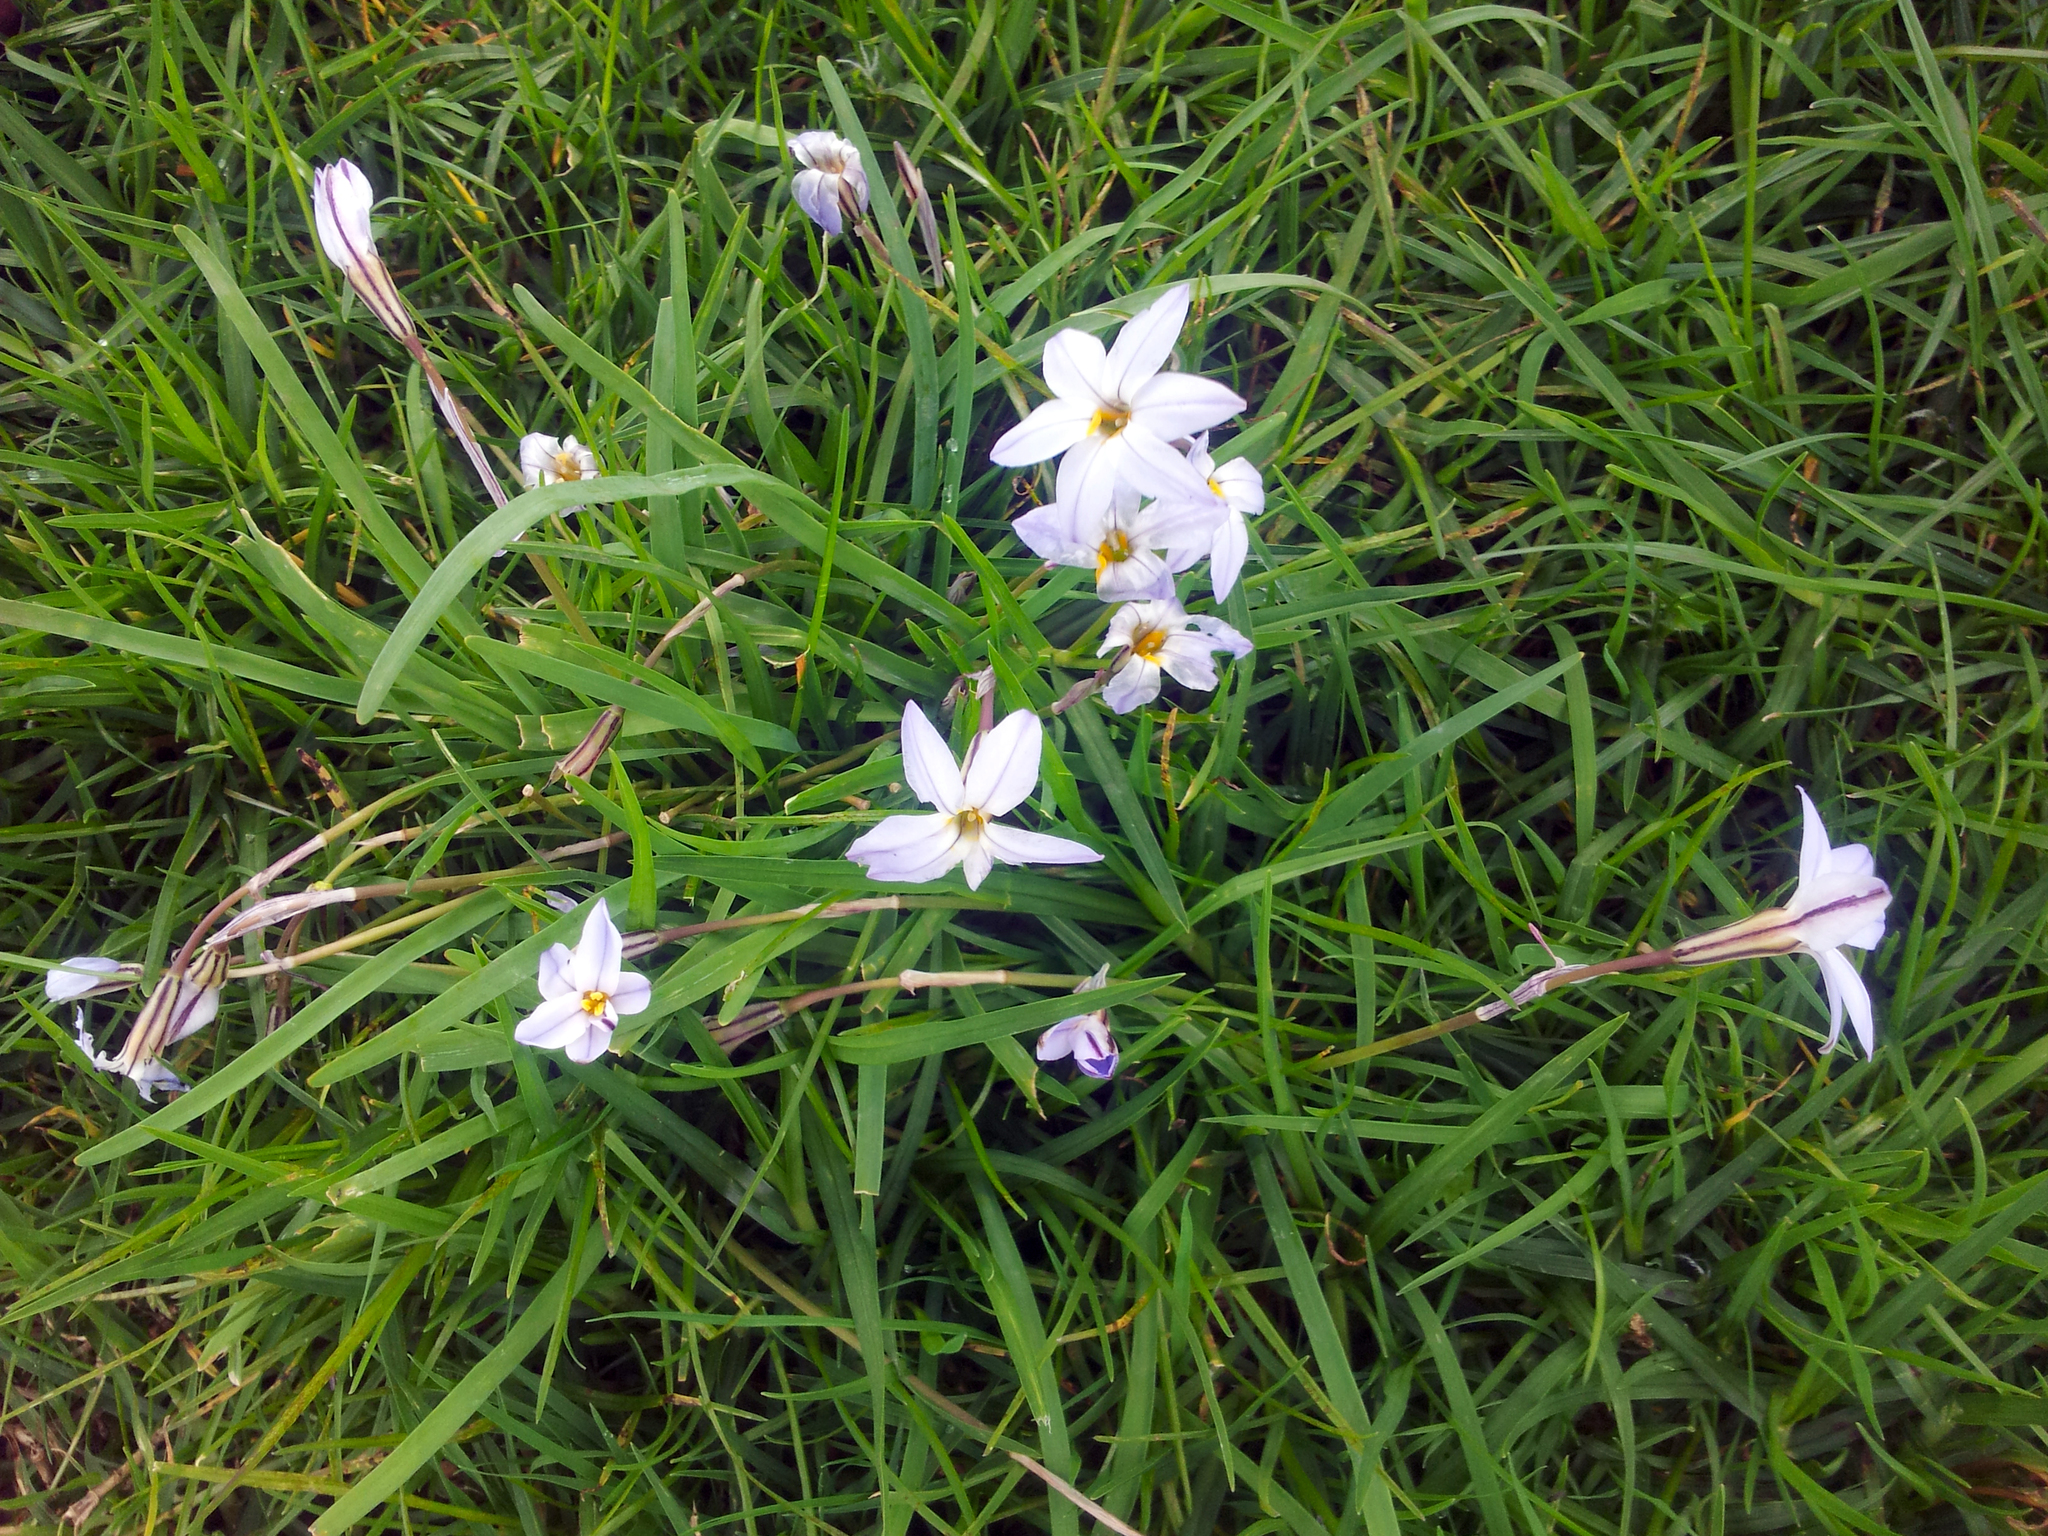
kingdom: Plantae
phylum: Tracheophyta
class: Liliopsida
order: Asparagales
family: Amaryllidaceae
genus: Ipheion
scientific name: Ipheion uniflorum
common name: Spring starflower
